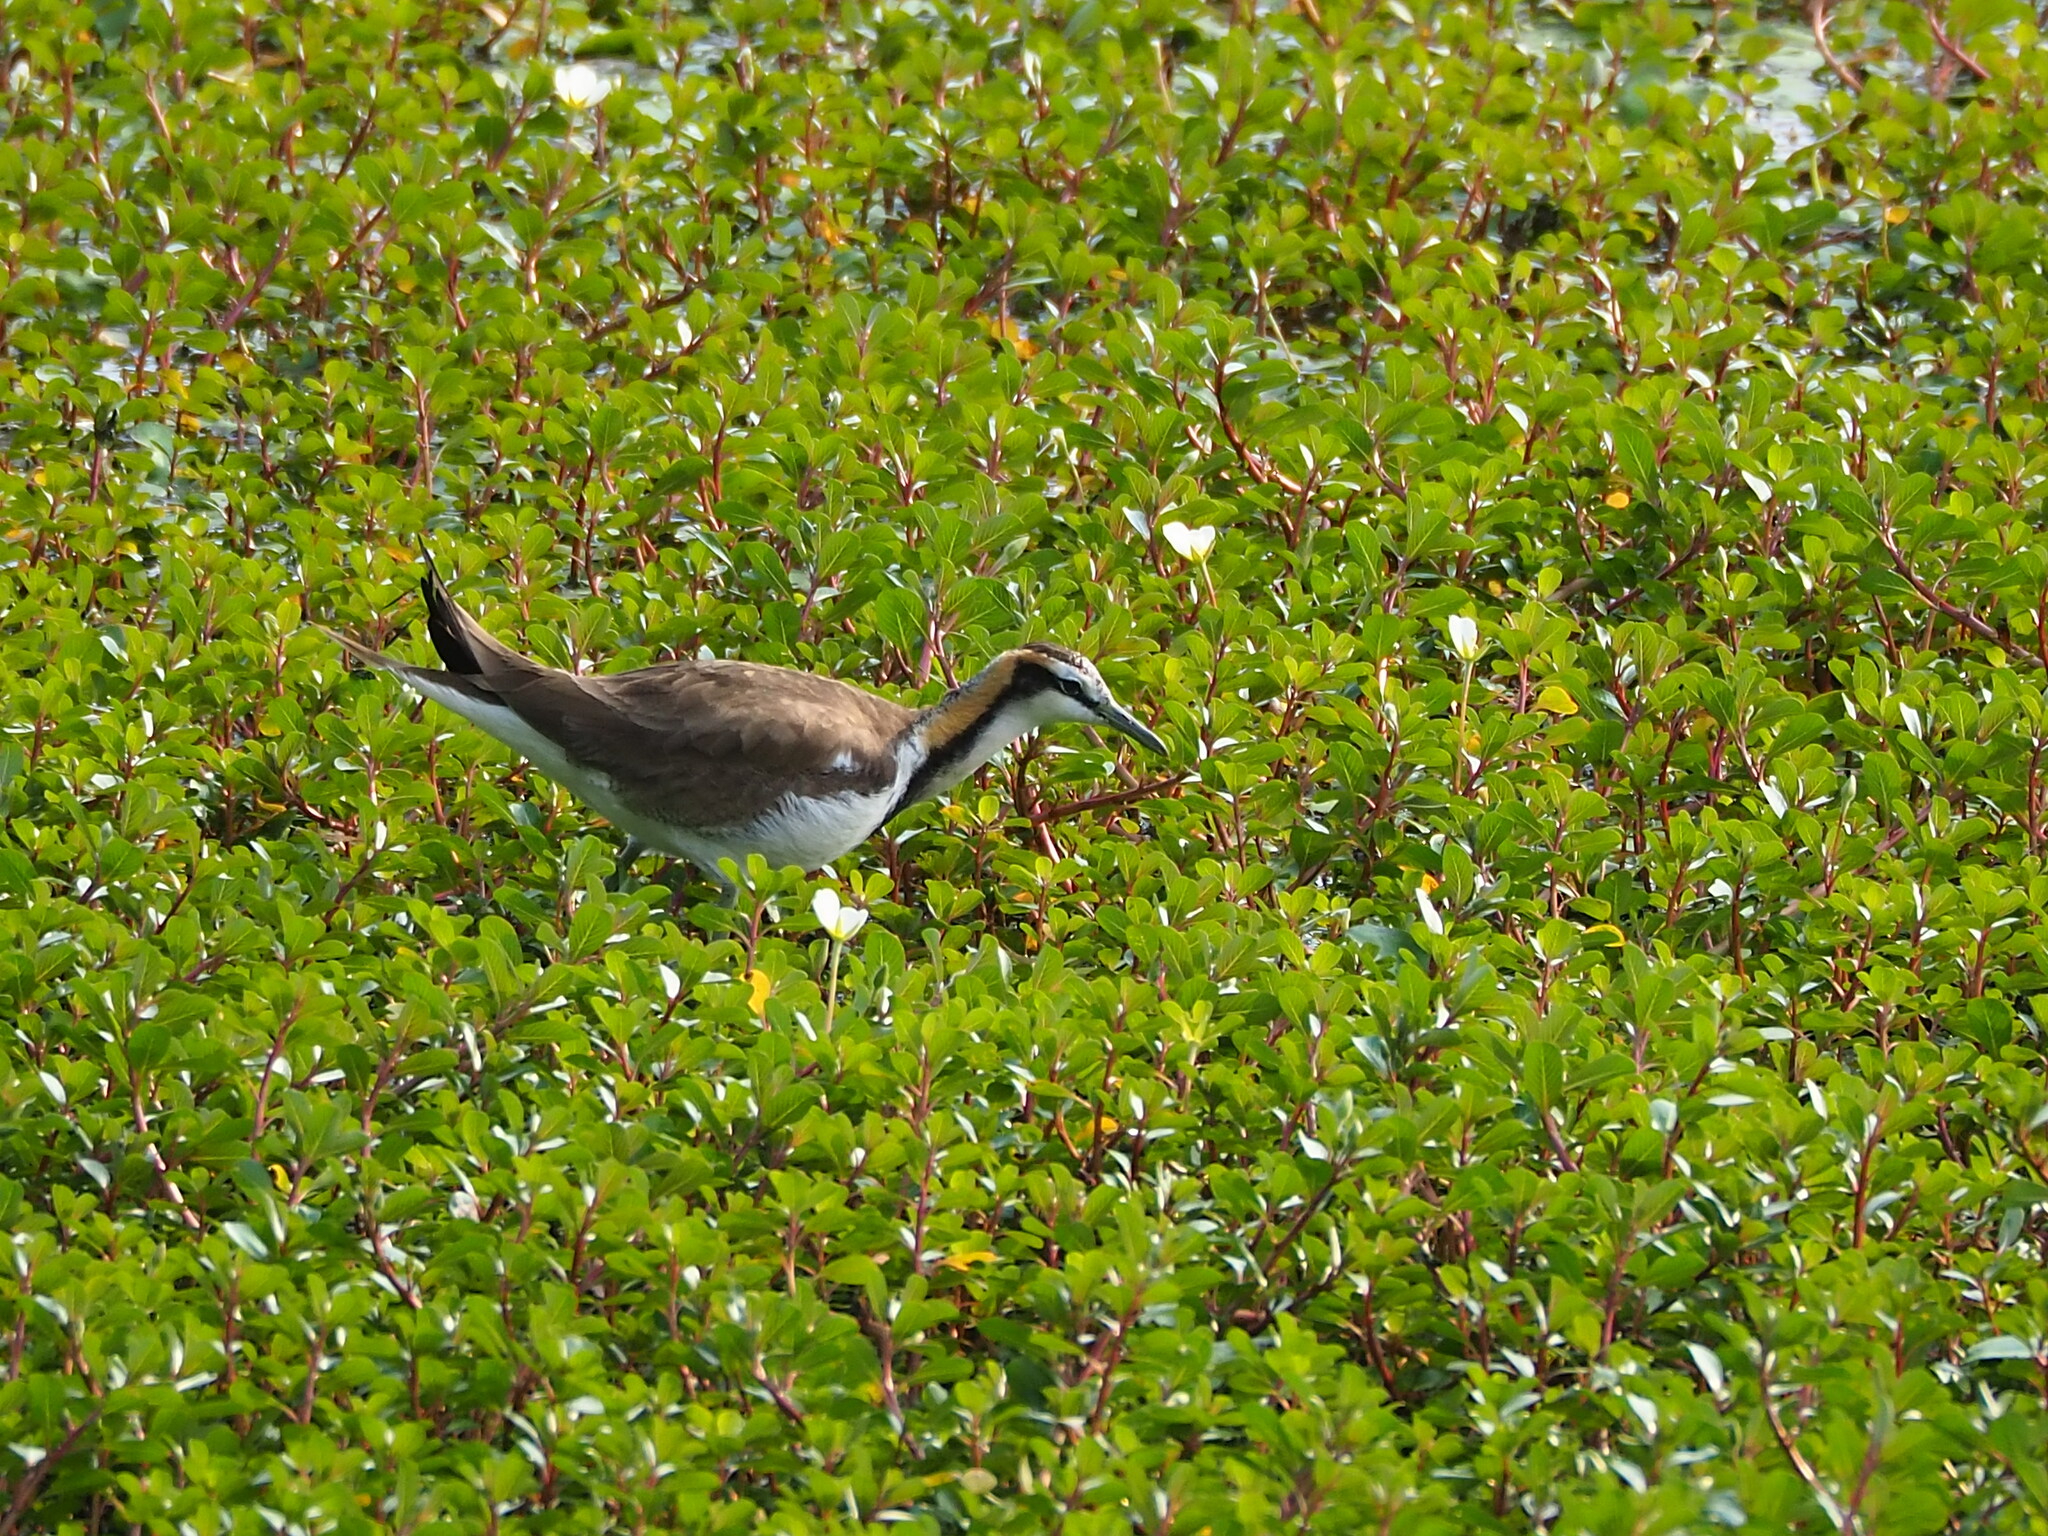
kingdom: Animalia
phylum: Chordata
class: Aves
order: Charadriiformes
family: Jacanidae
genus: Hydrophasianus
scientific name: Hydrophasianus chirurgus
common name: Pheasant-tailed jacana
